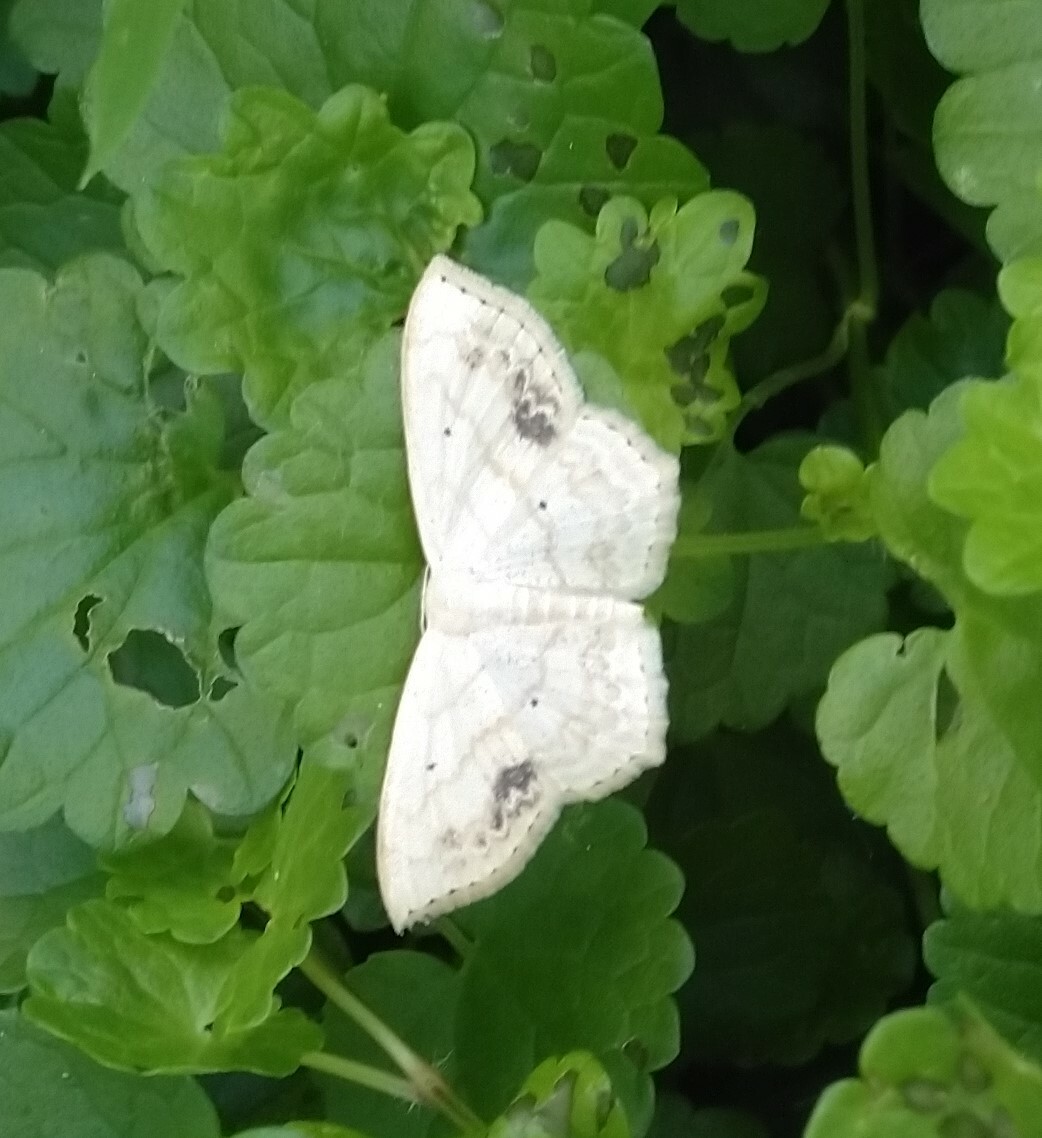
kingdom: Animalia
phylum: Arthropoda
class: Insecta
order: Lepidoptera
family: Geometridae
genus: Scopula
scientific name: Scopula limboundata
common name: Large lace border
